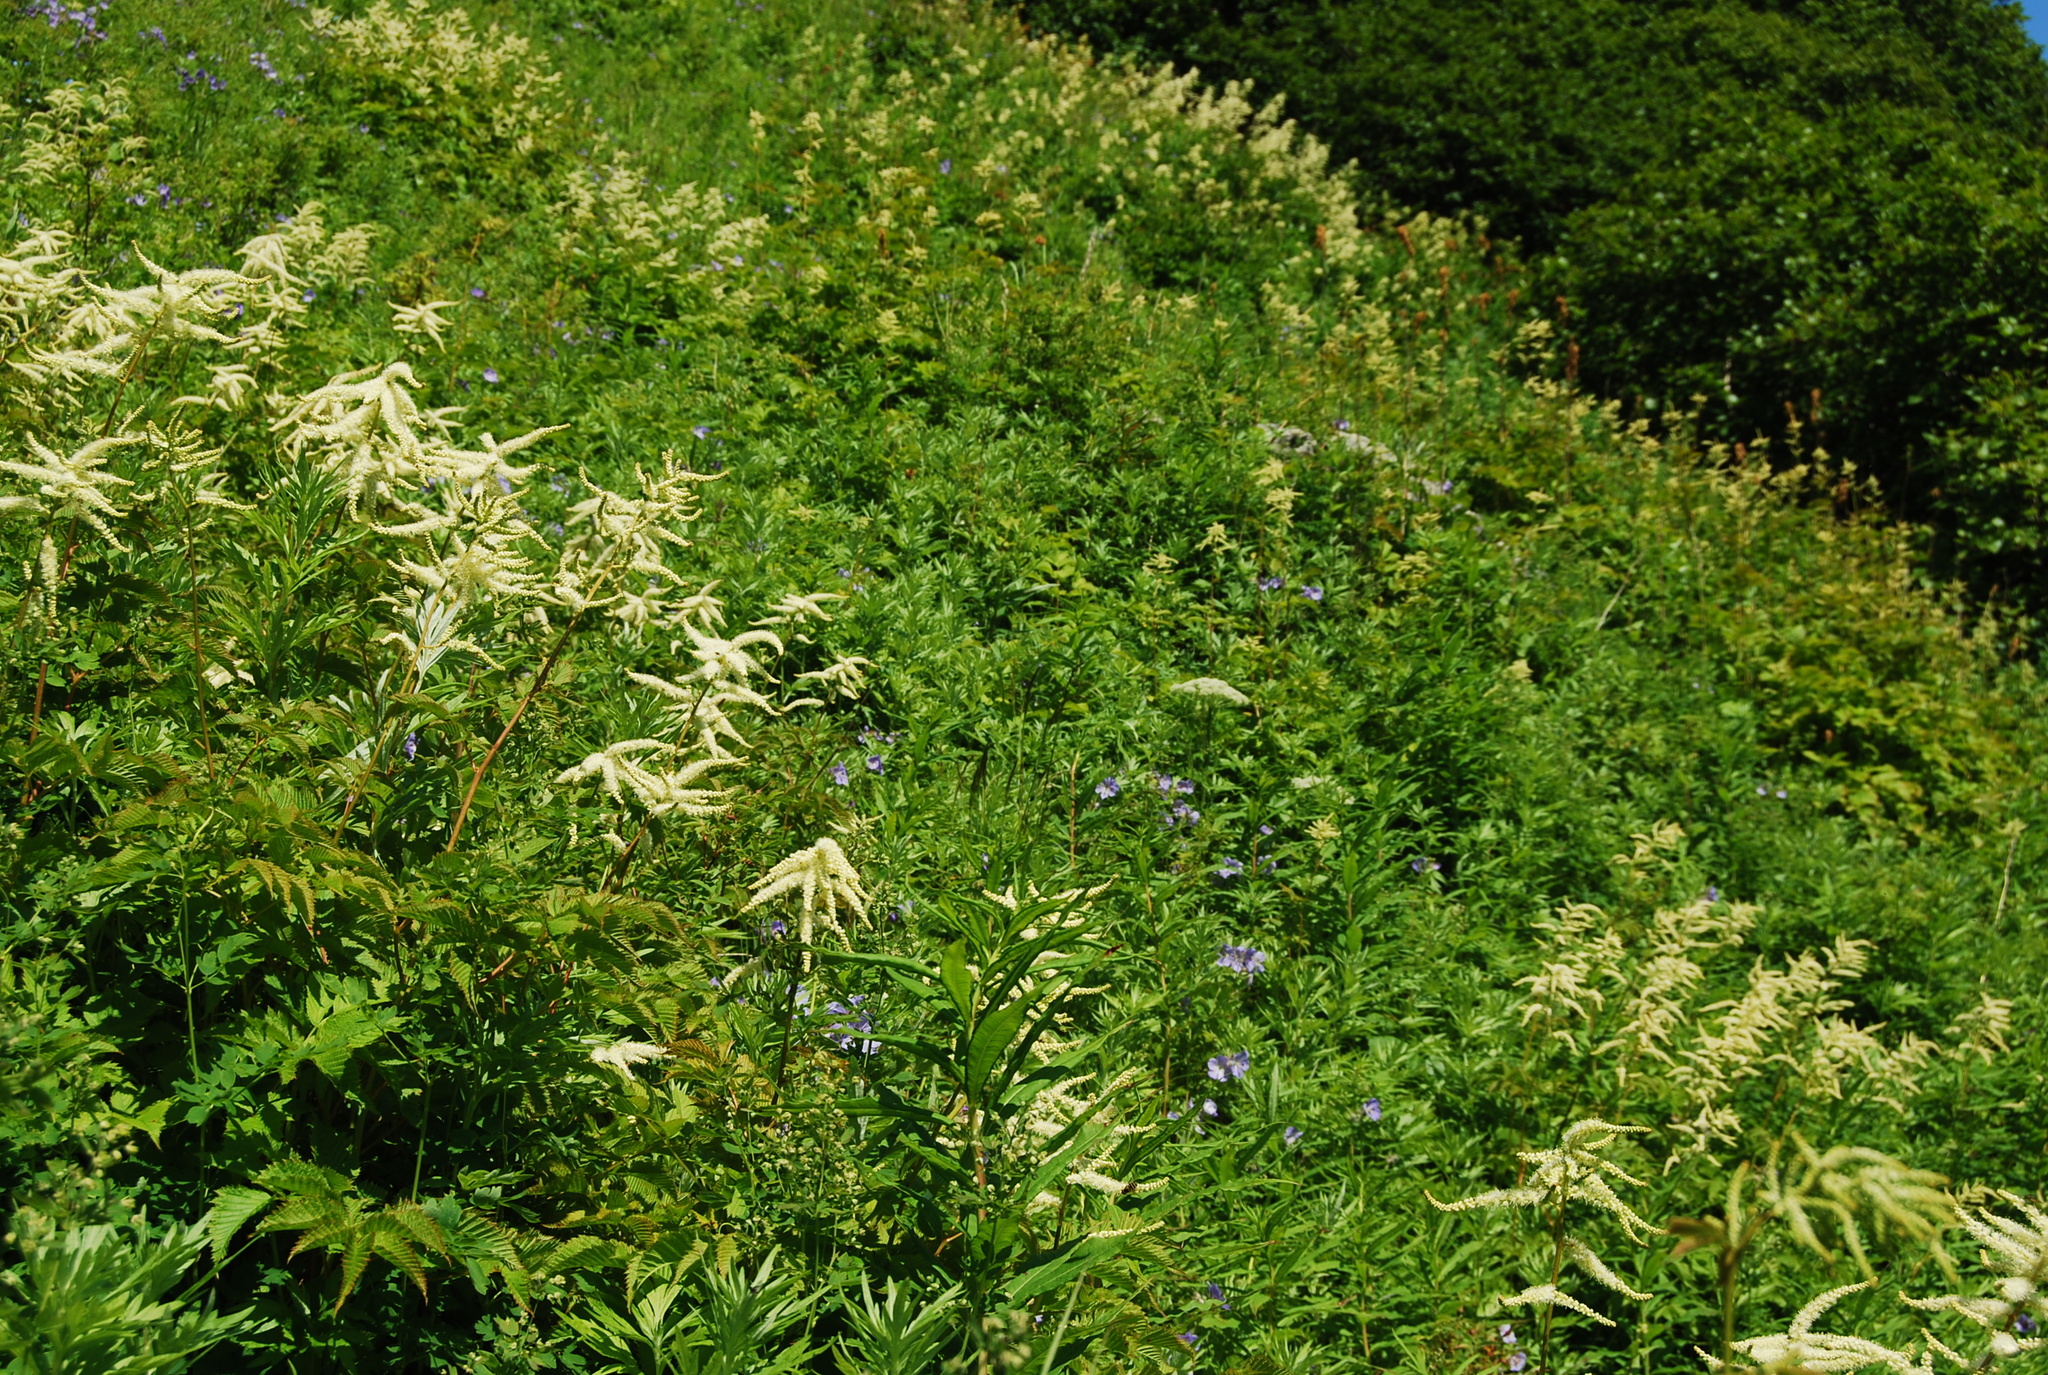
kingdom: Plantae
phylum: Tracheophyta
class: Magnoliopsida
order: Rosales
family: Rosaceae
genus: Aruncus
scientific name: Aruncus dioicus
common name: Buck's-beard
